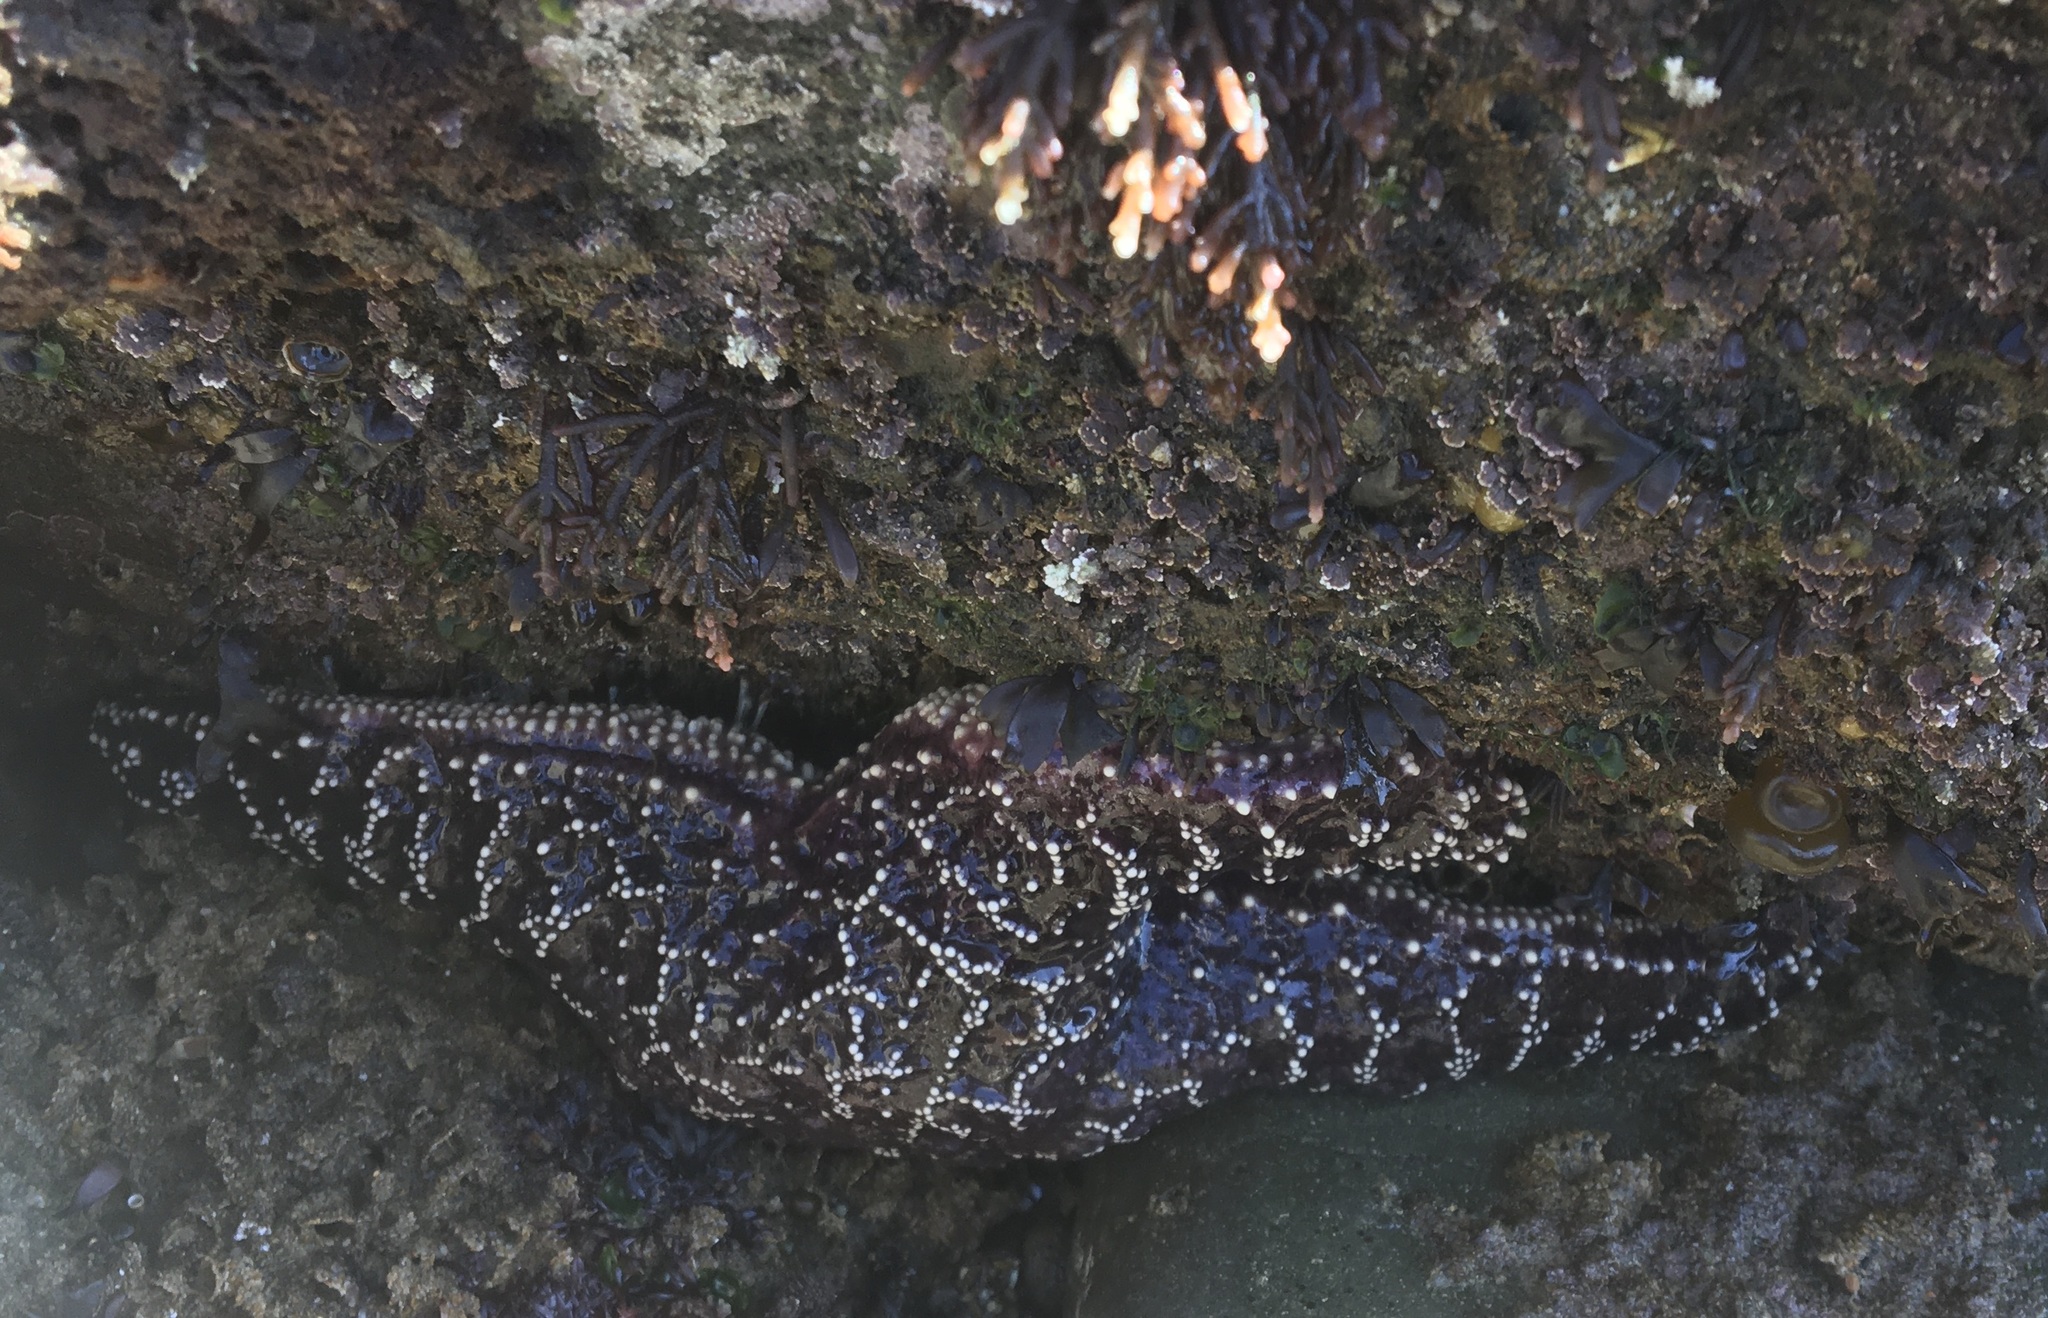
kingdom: Animalia
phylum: Echinodermata
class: Asteroidea
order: Forcipulatida
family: Asteriidae
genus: Pisaster
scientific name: Pisaster ochraceus
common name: Ochre stars
